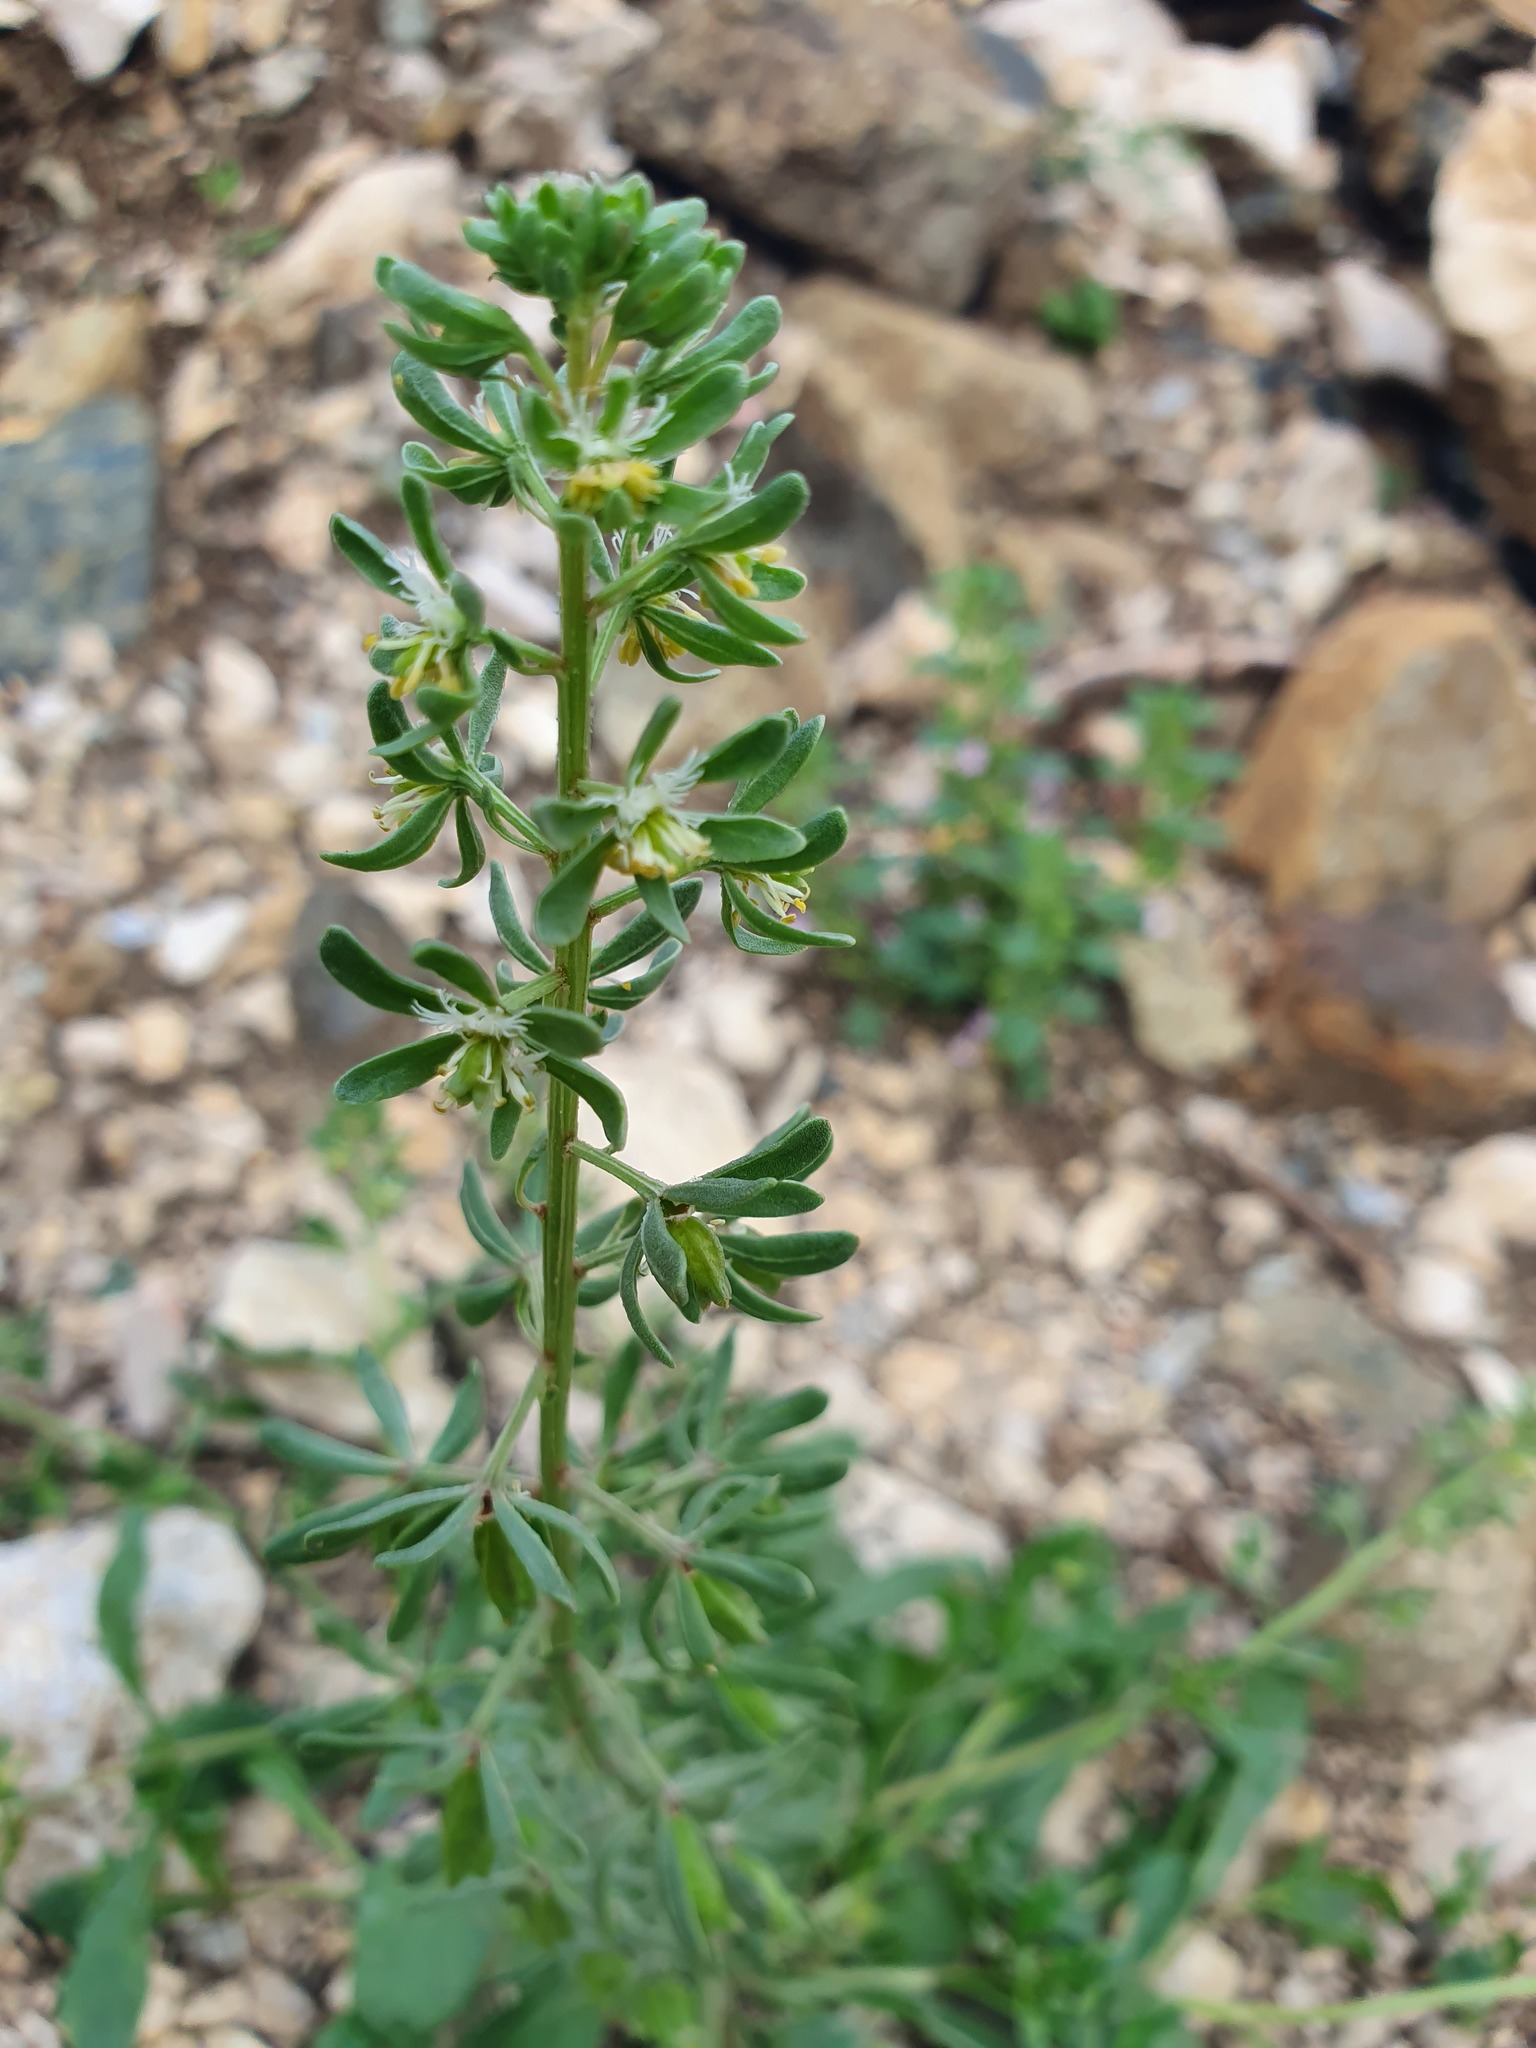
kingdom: Plantae
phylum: Tracheophyta
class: Magnoliopsida
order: Brassicales
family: Resedaceae
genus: Reseda
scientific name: Reseda phyteuma
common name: Corn mignonette
